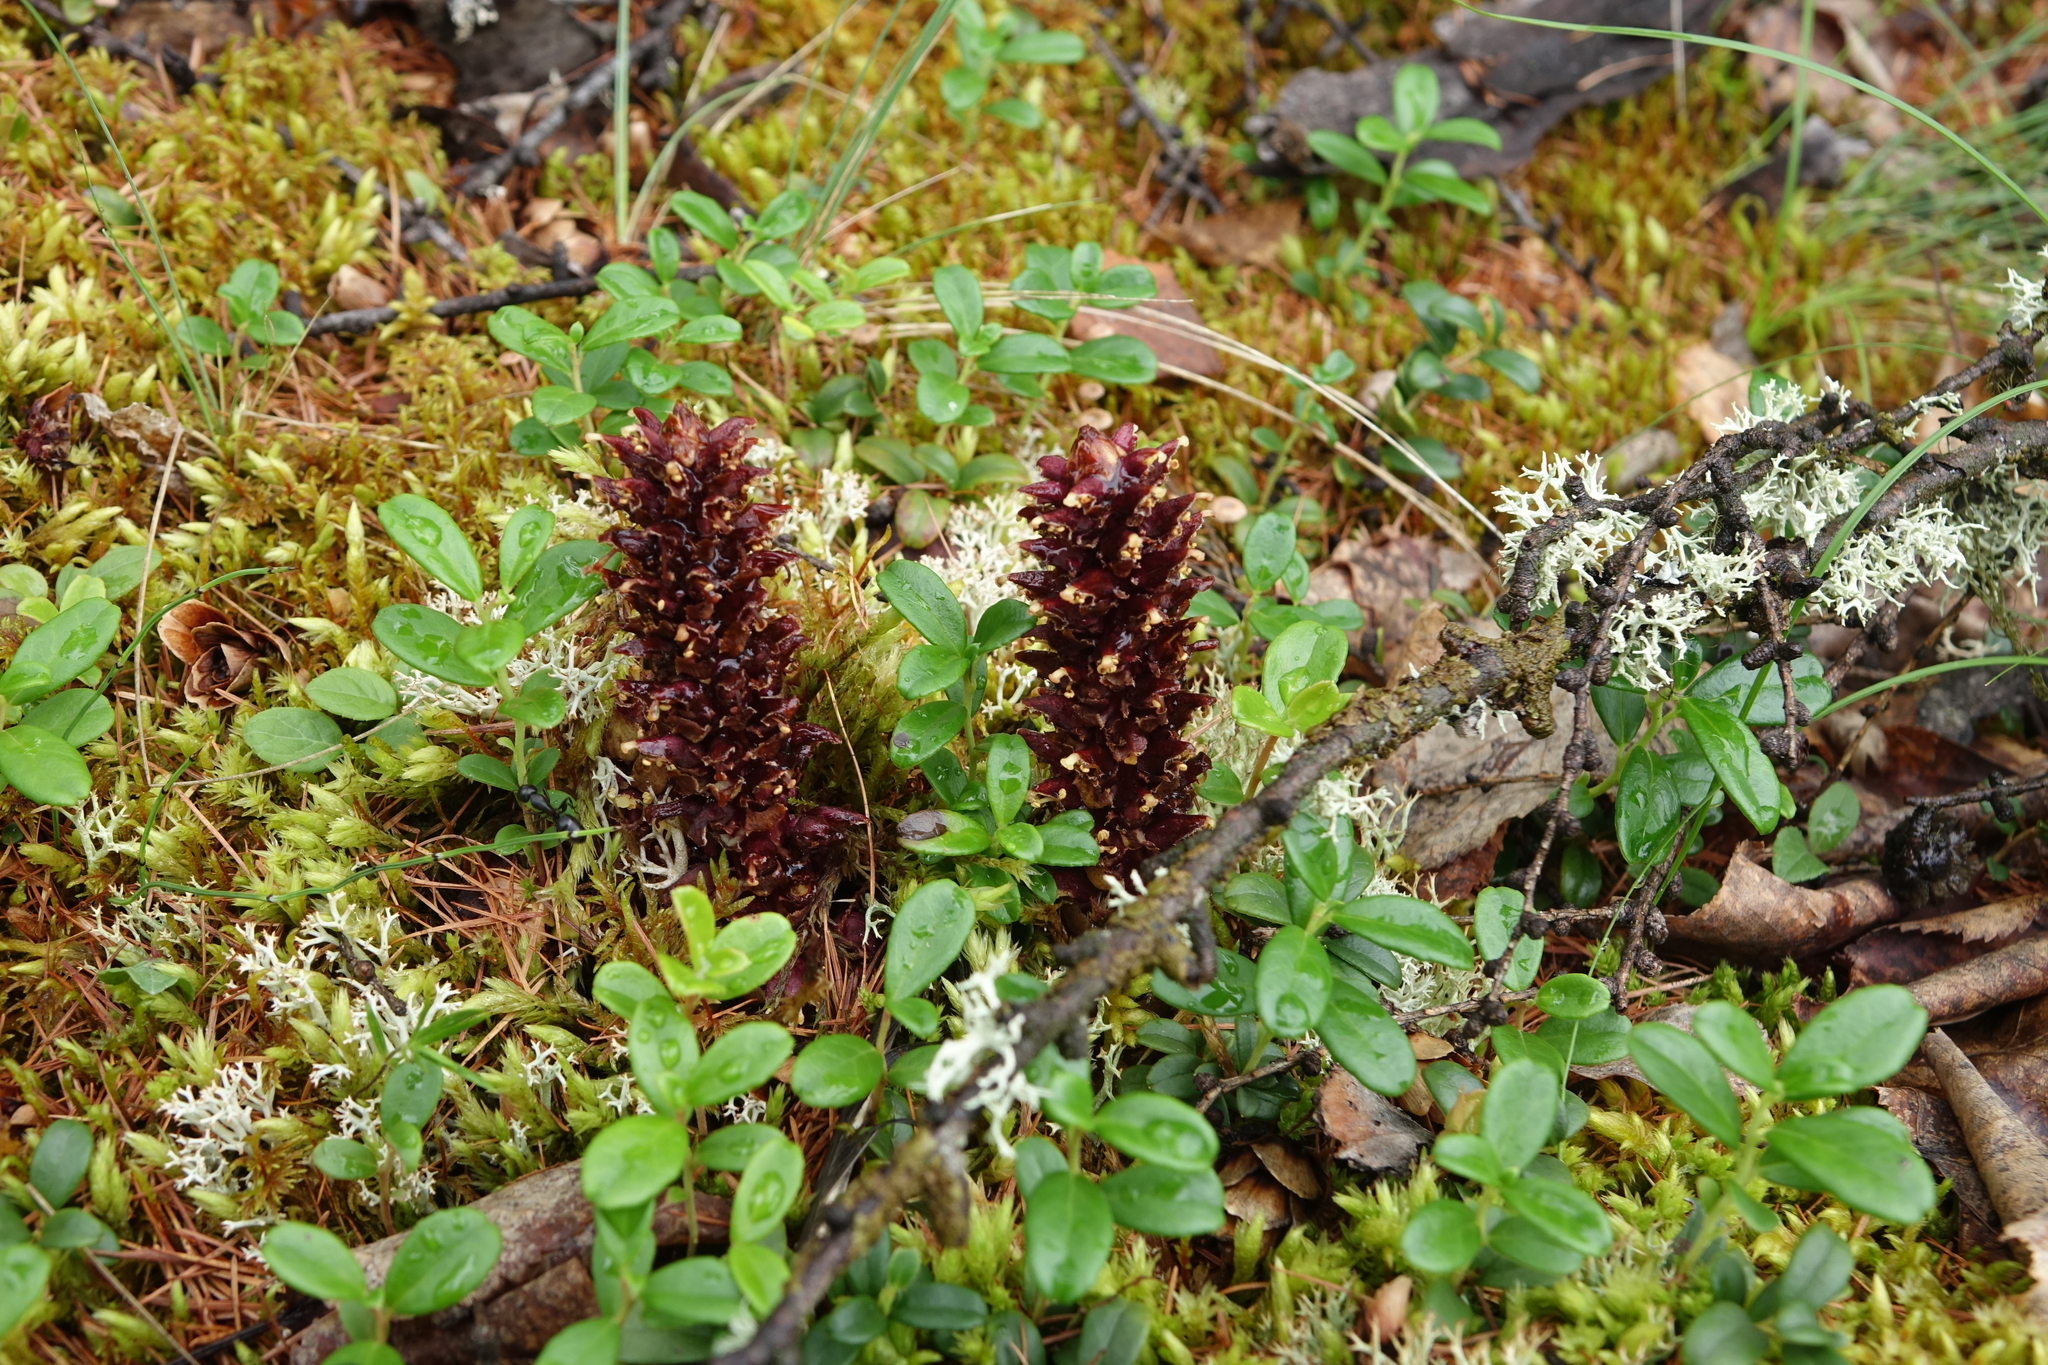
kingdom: Plantae
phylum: Tracheophyta
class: Magnoliopsida
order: Ericales
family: Ericaceae
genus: Vaccinium
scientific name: Vaccinium vitis-idaea
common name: Cowberry
